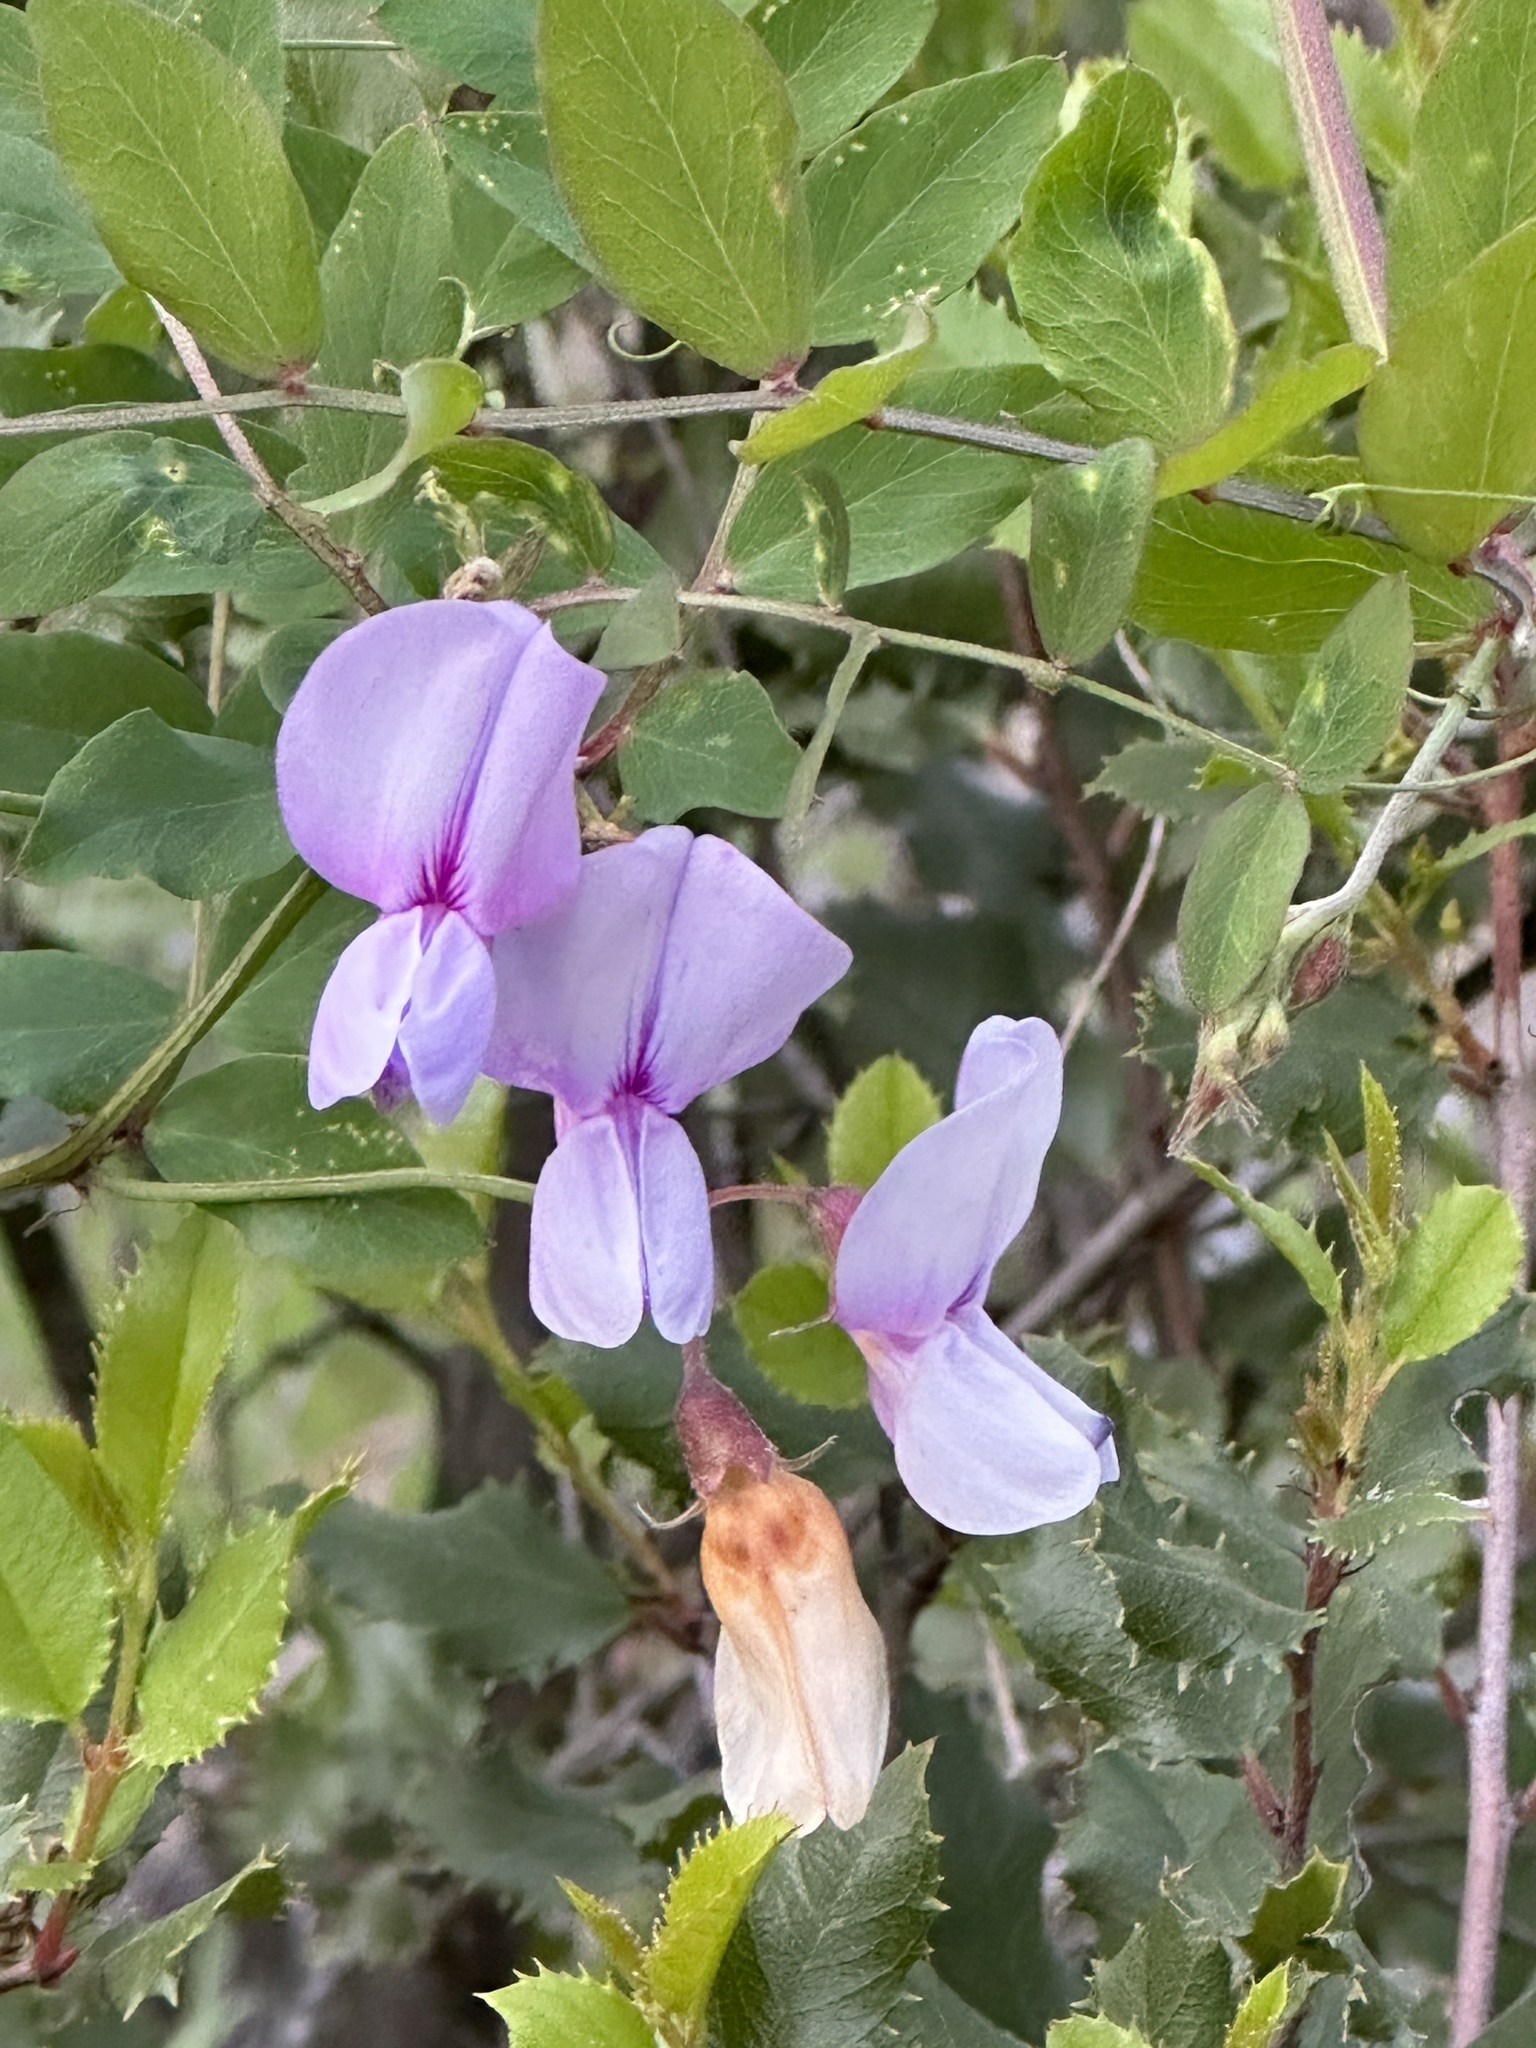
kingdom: Plantae
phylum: Tracheophyta
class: Magnoliopsida
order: Fabales
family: Fabaceae
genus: Lathyrus
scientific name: Lathyrus vestitus
